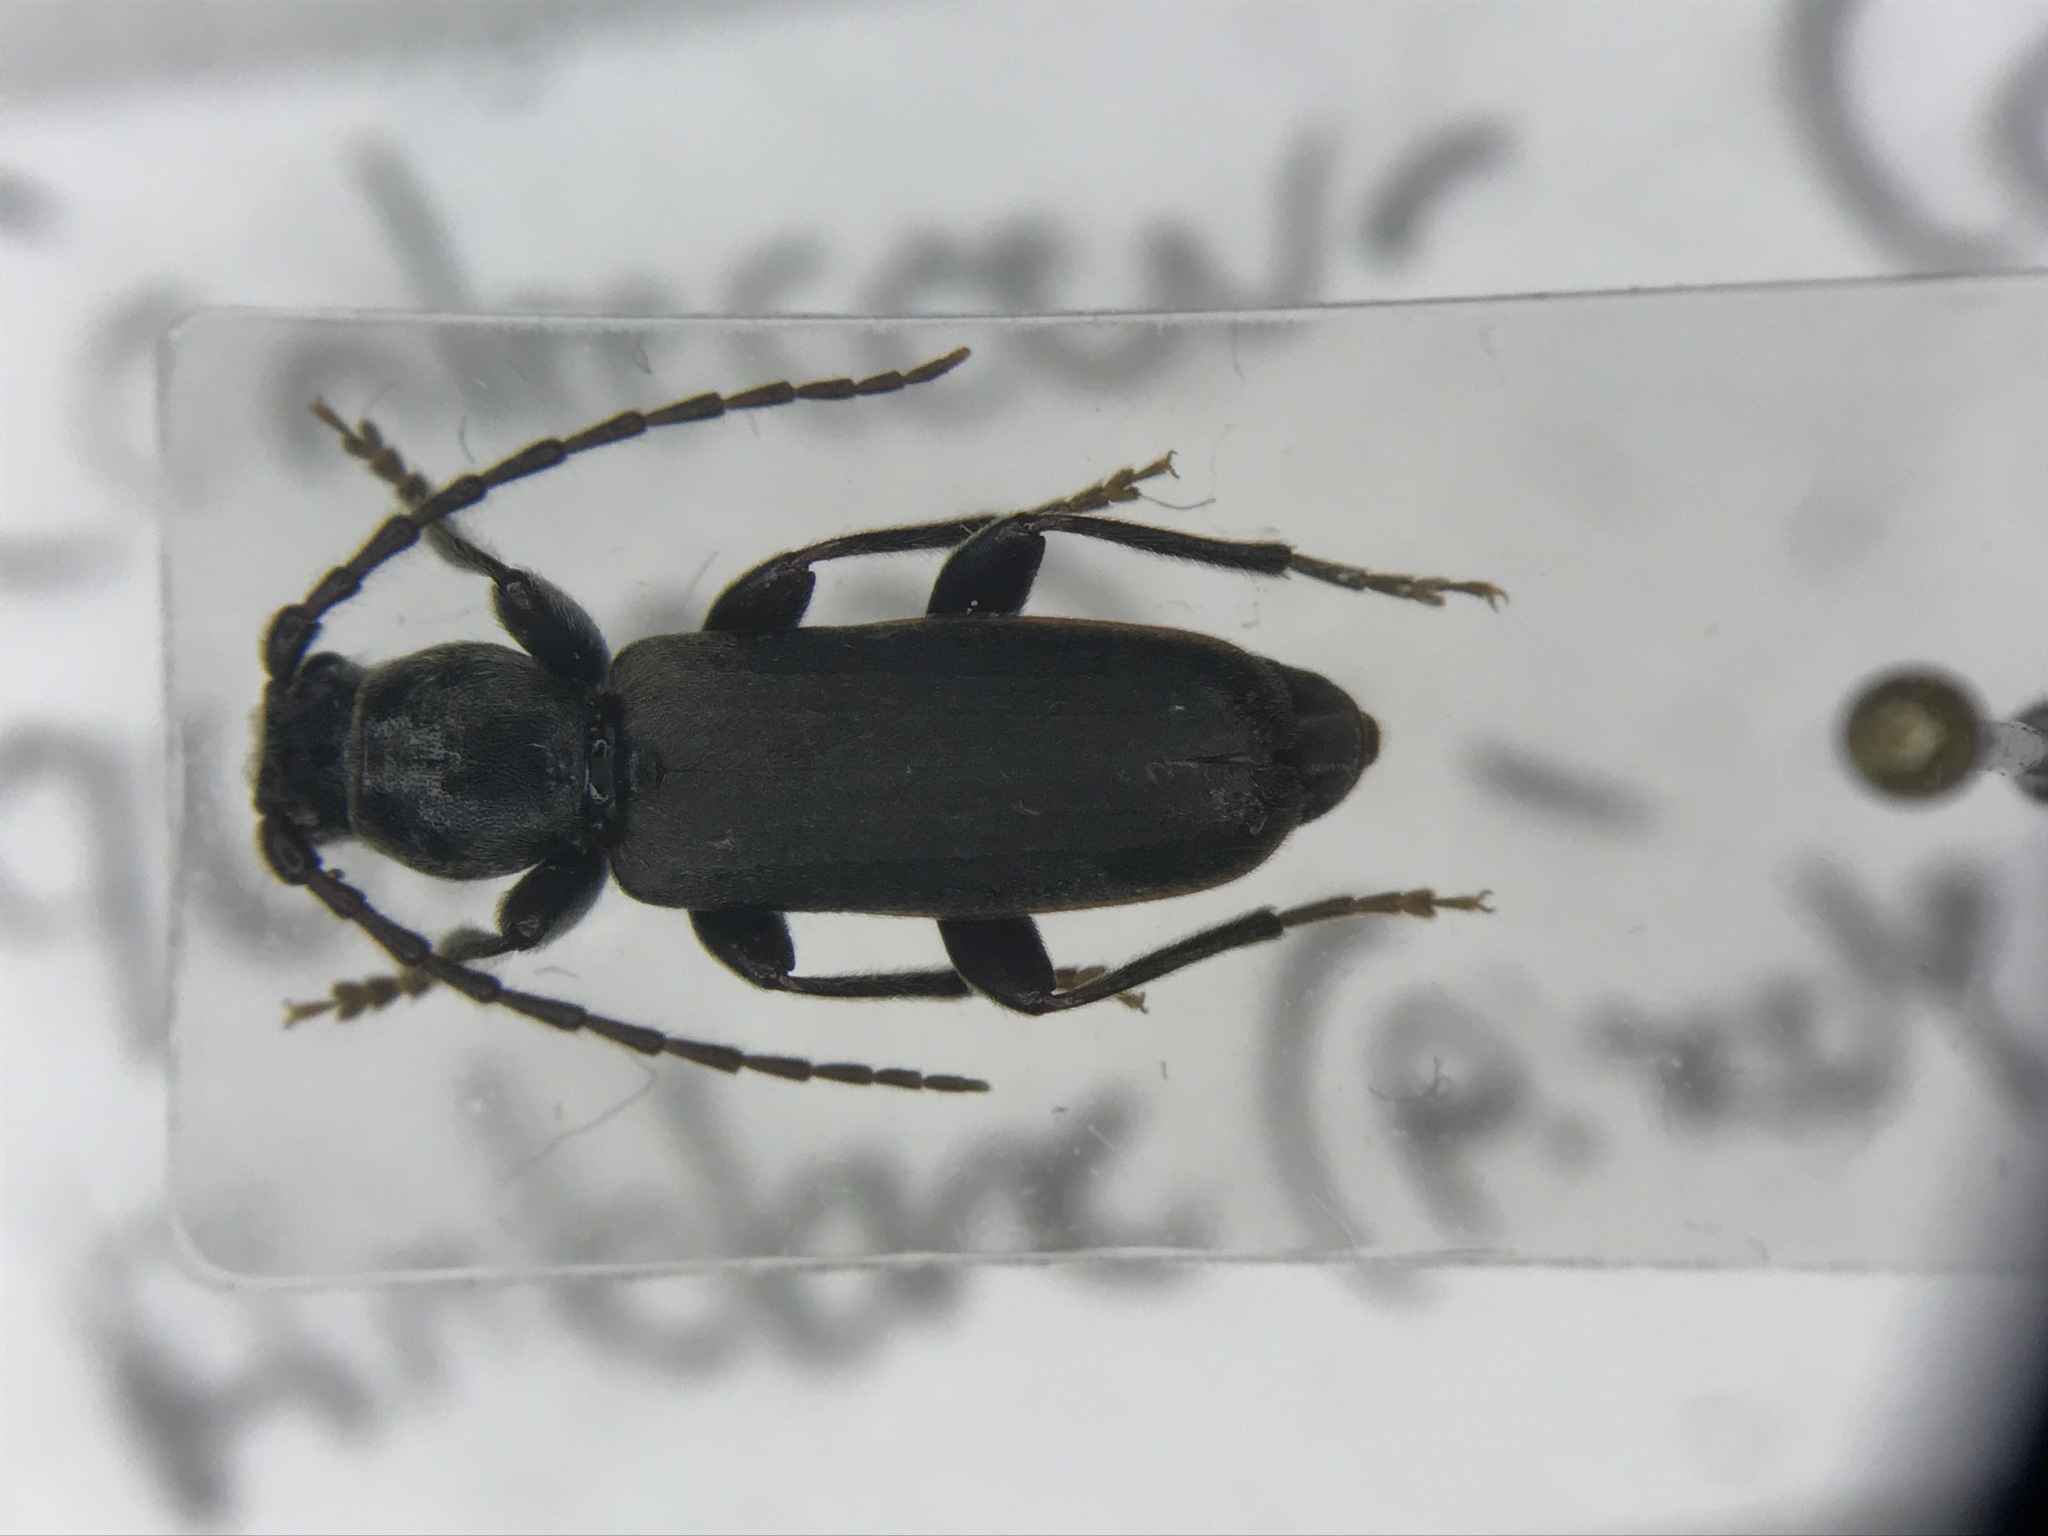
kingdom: Animalia
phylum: Arthropoda
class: Insecta
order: Coleoptera
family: Cerambycidae
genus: Tetropium
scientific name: Tetropium schwarzianum
